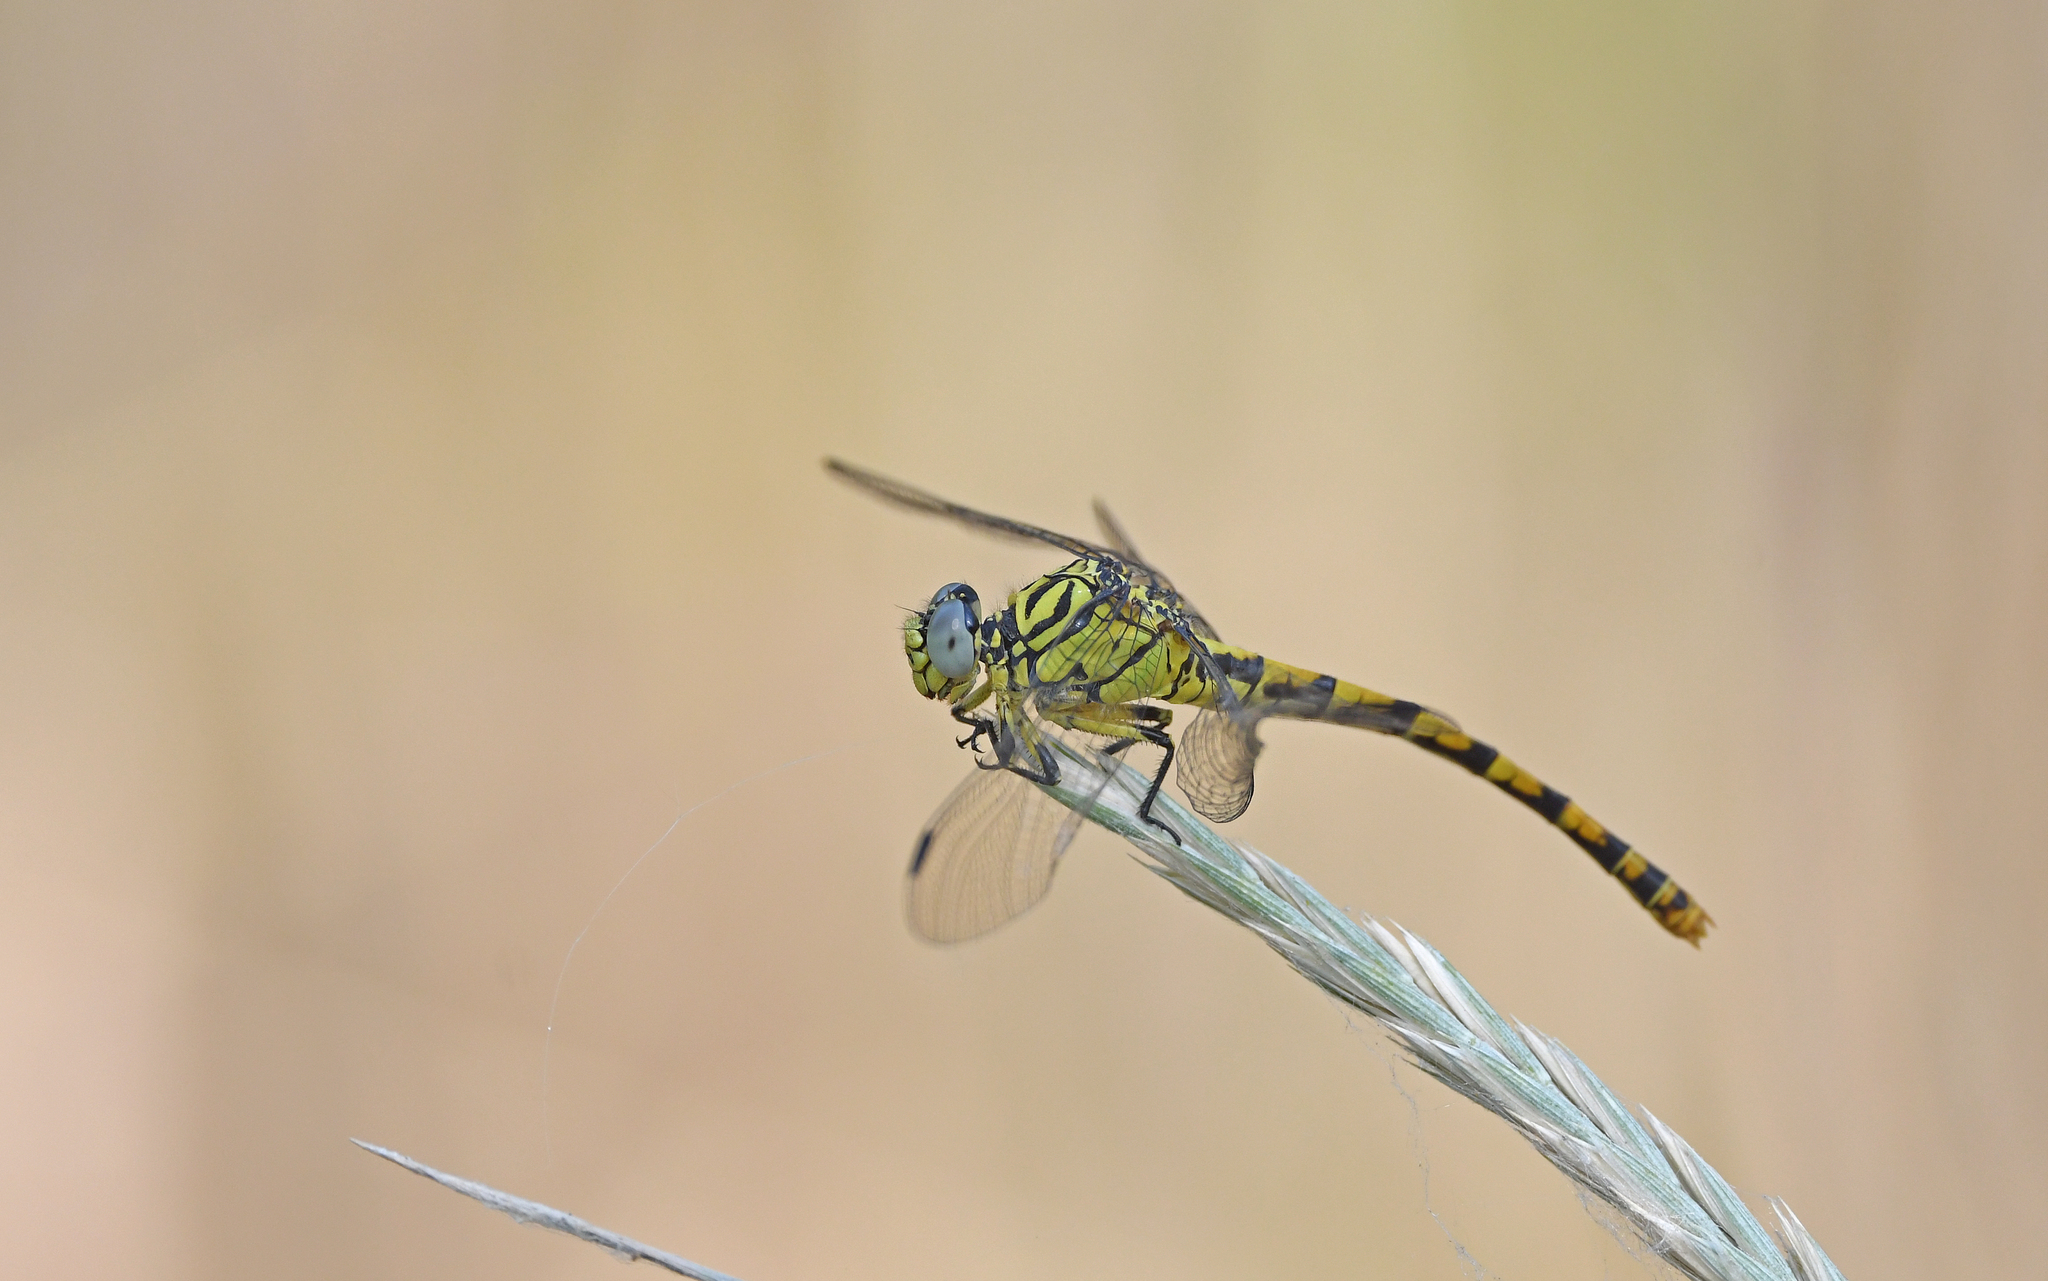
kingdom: Animalia
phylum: Arthropoda
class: Insecta
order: Odonata
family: Gomphidae
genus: Onychogomphus
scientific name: Onychogomphus forcipatus
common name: Small pincertail
